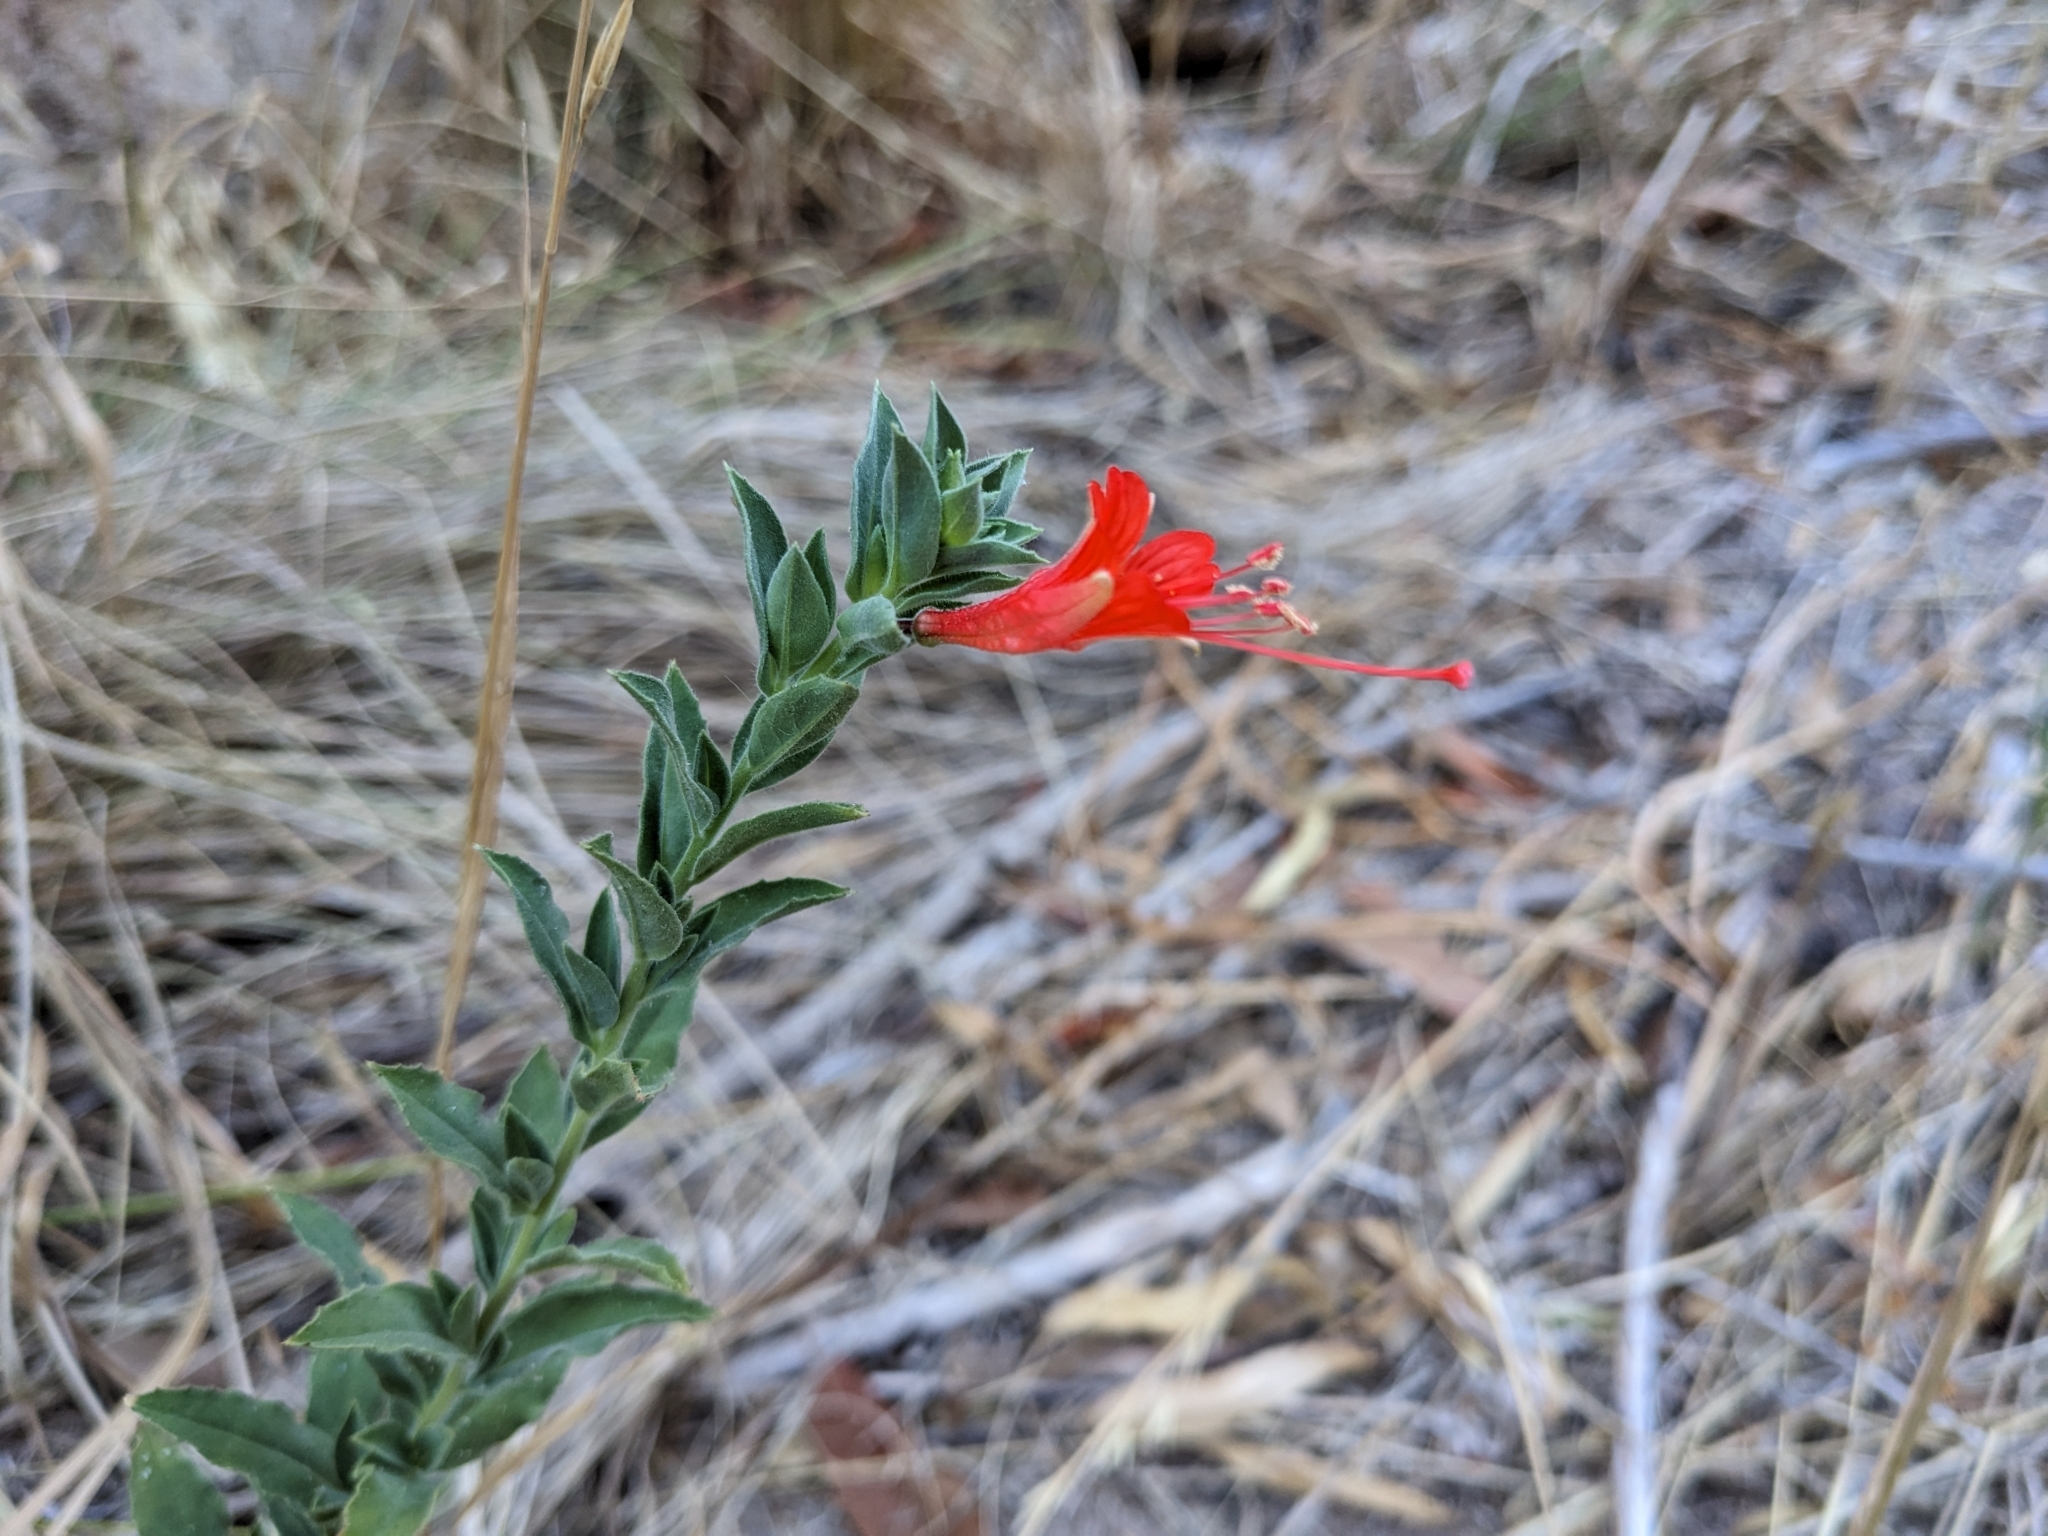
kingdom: Plantae
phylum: Tracheophyta
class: Magnoliopsida
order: Myrtales
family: Onagraceae
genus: Epilobium
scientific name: Epilobium canum
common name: California-fuchsia
